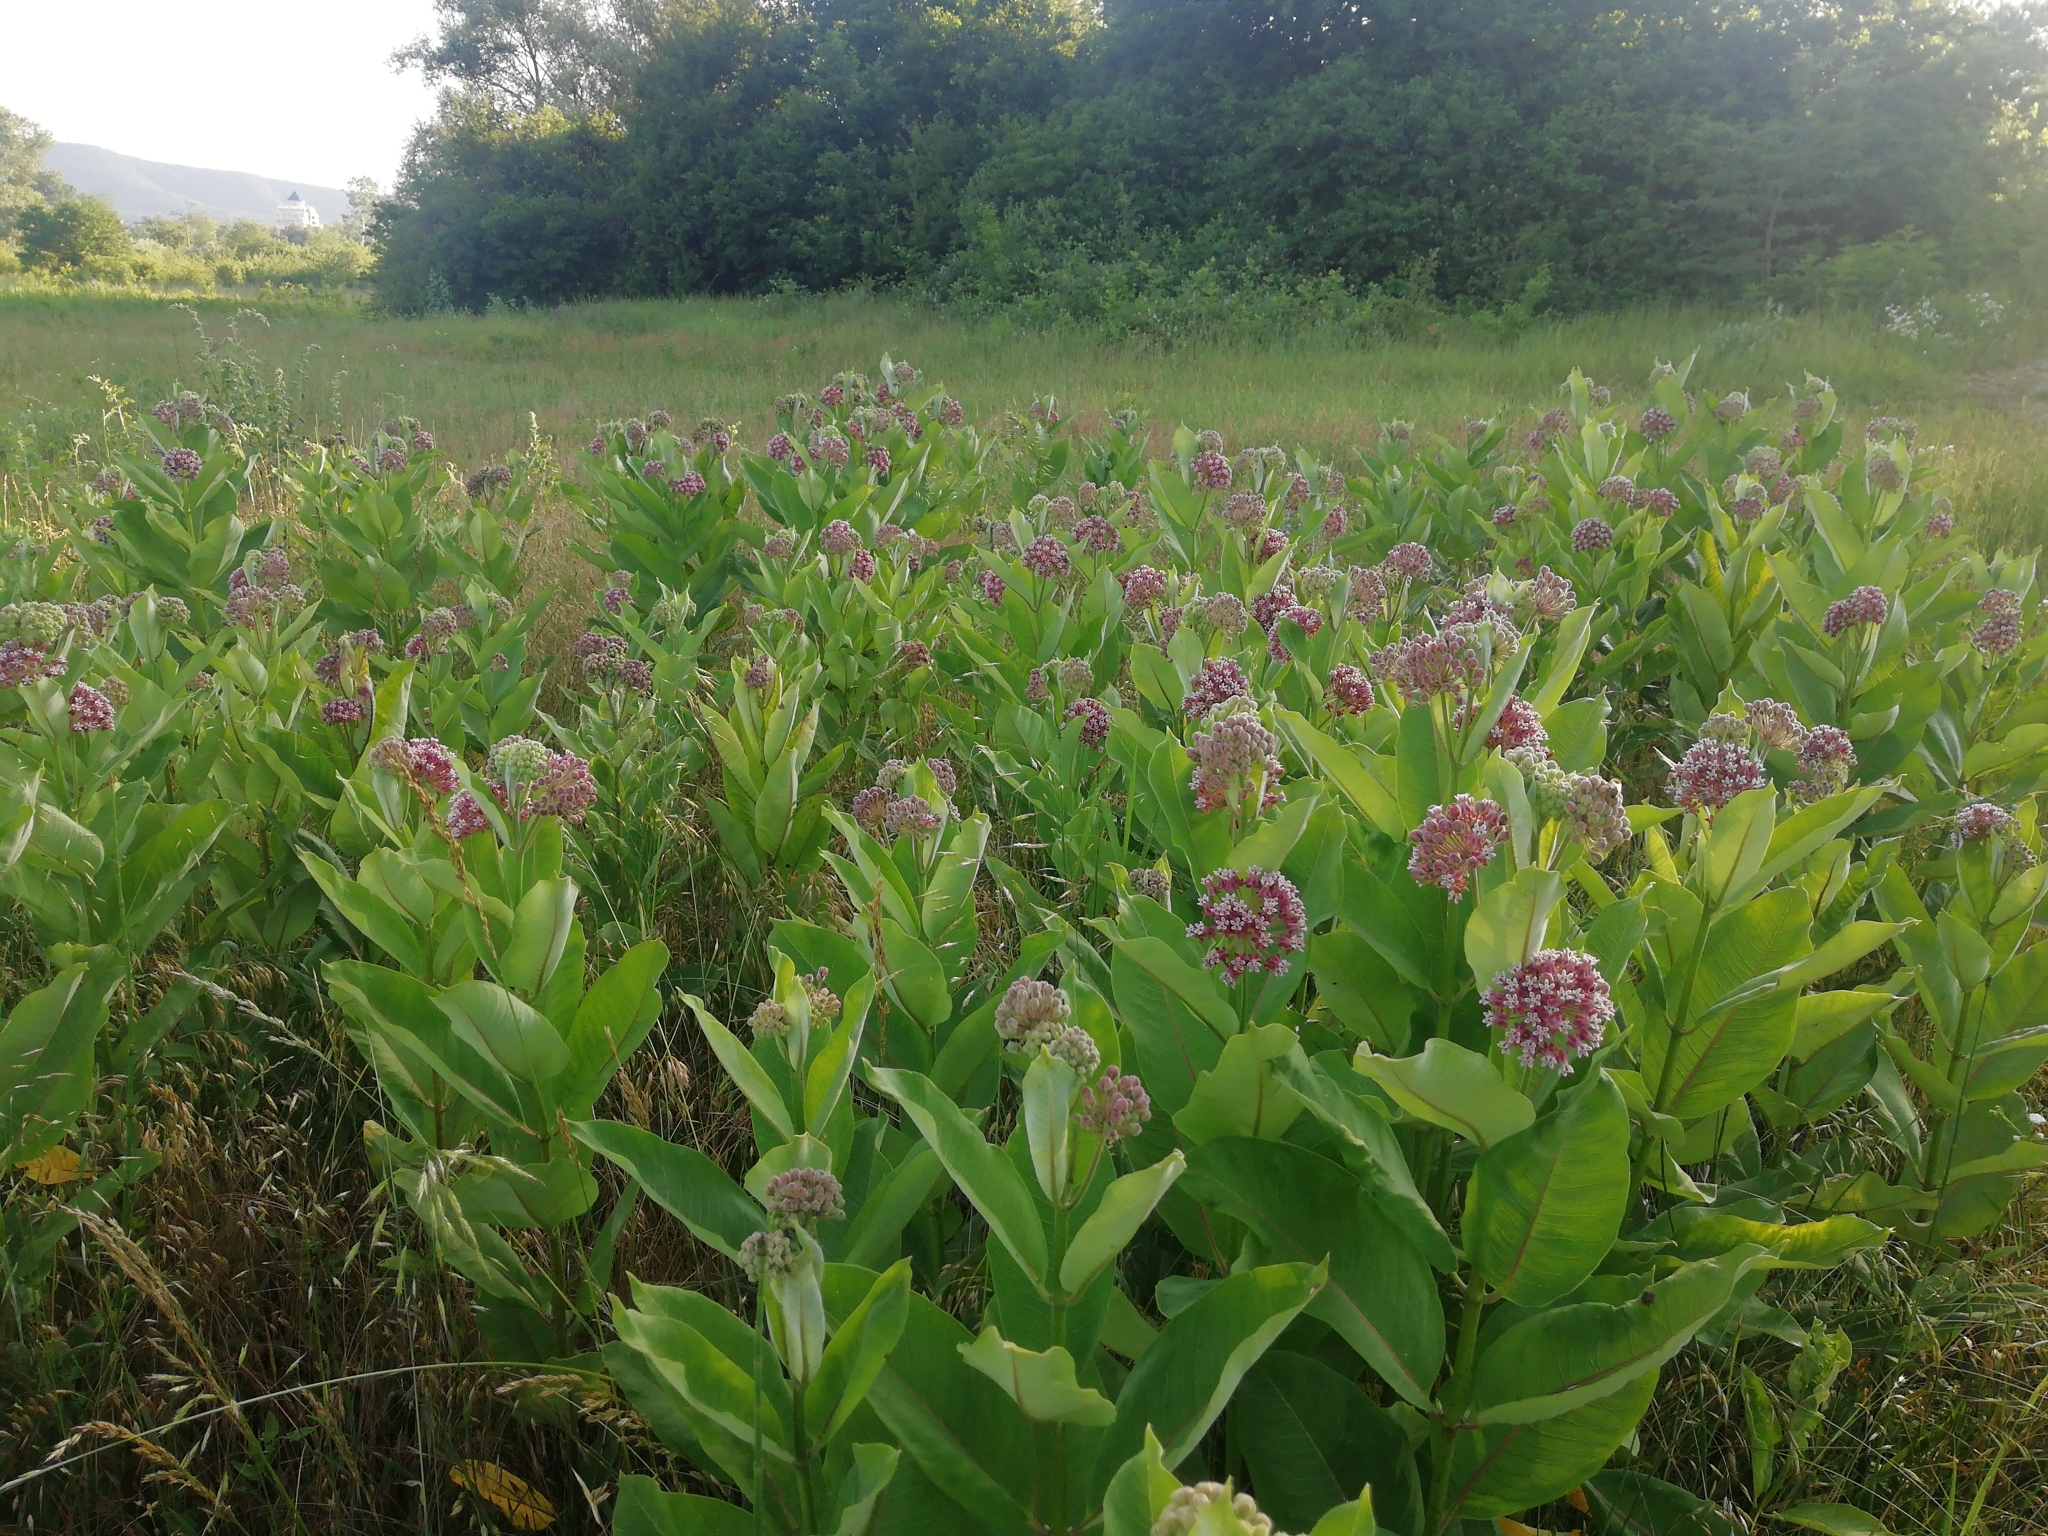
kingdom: Plantae
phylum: Tracheophyta
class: Magnoliopsida
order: Gentianales
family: Apocynaceae
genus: Asclepias
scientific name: Asclepias syriaca
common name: Common milkweed
